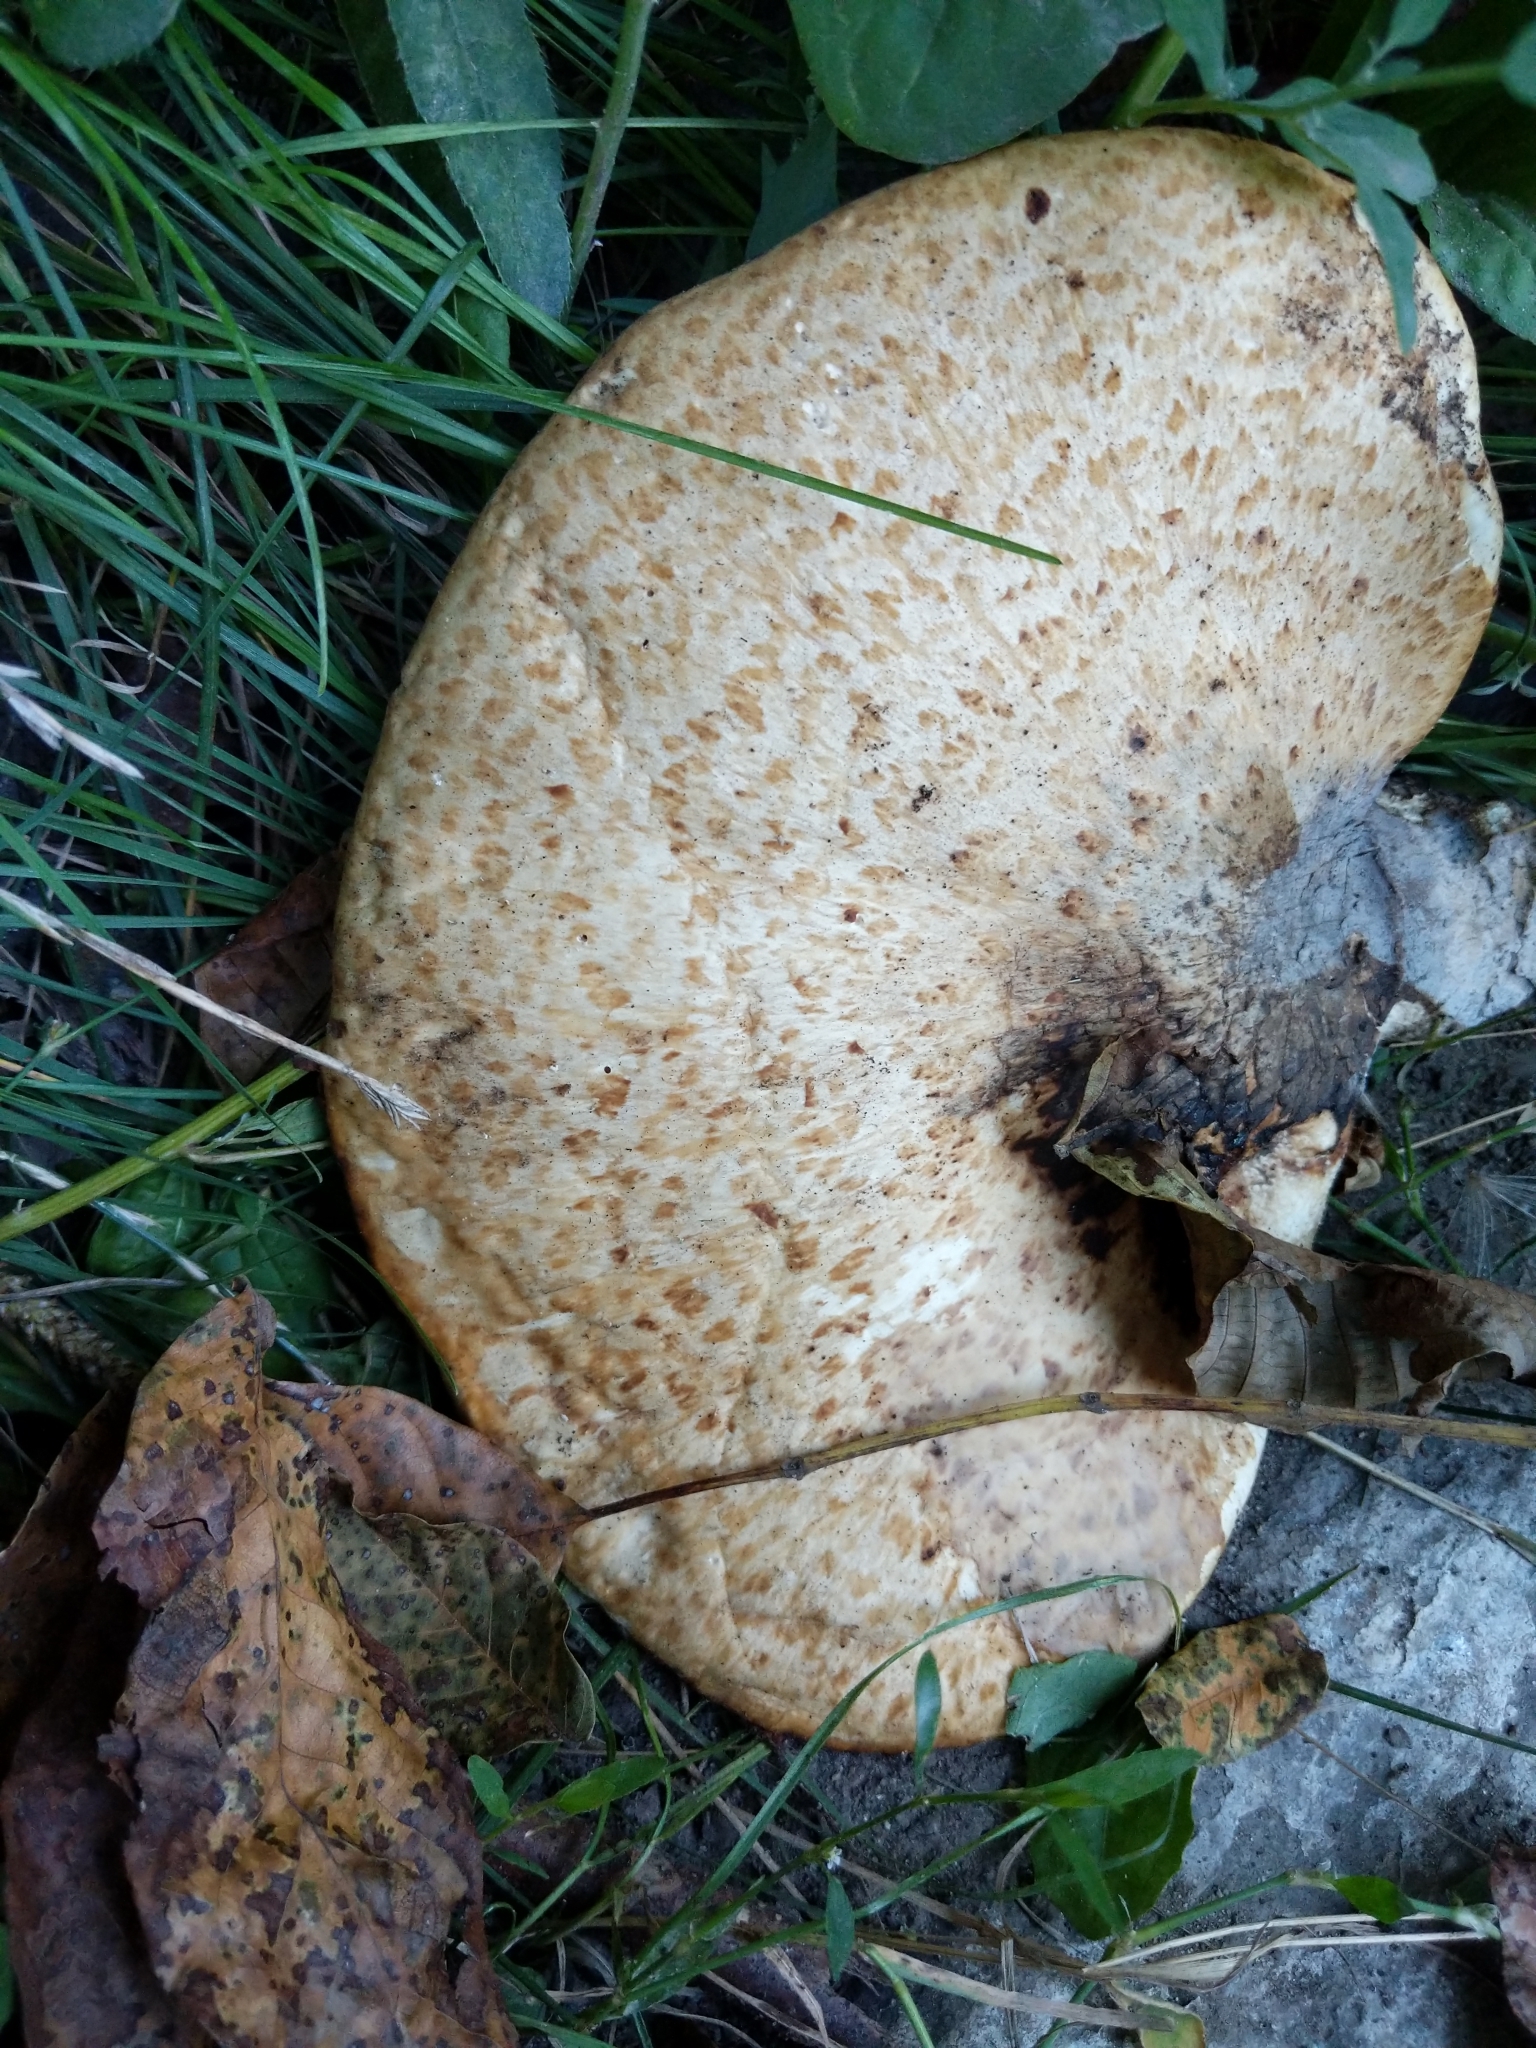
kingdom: Fungi
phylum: Basidiomycota
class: Agaricomycetes
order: Polyporales
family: Polyporaceae
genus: Cerioporus
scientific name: Cerioporus squamosus
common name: Dryad's saddle
